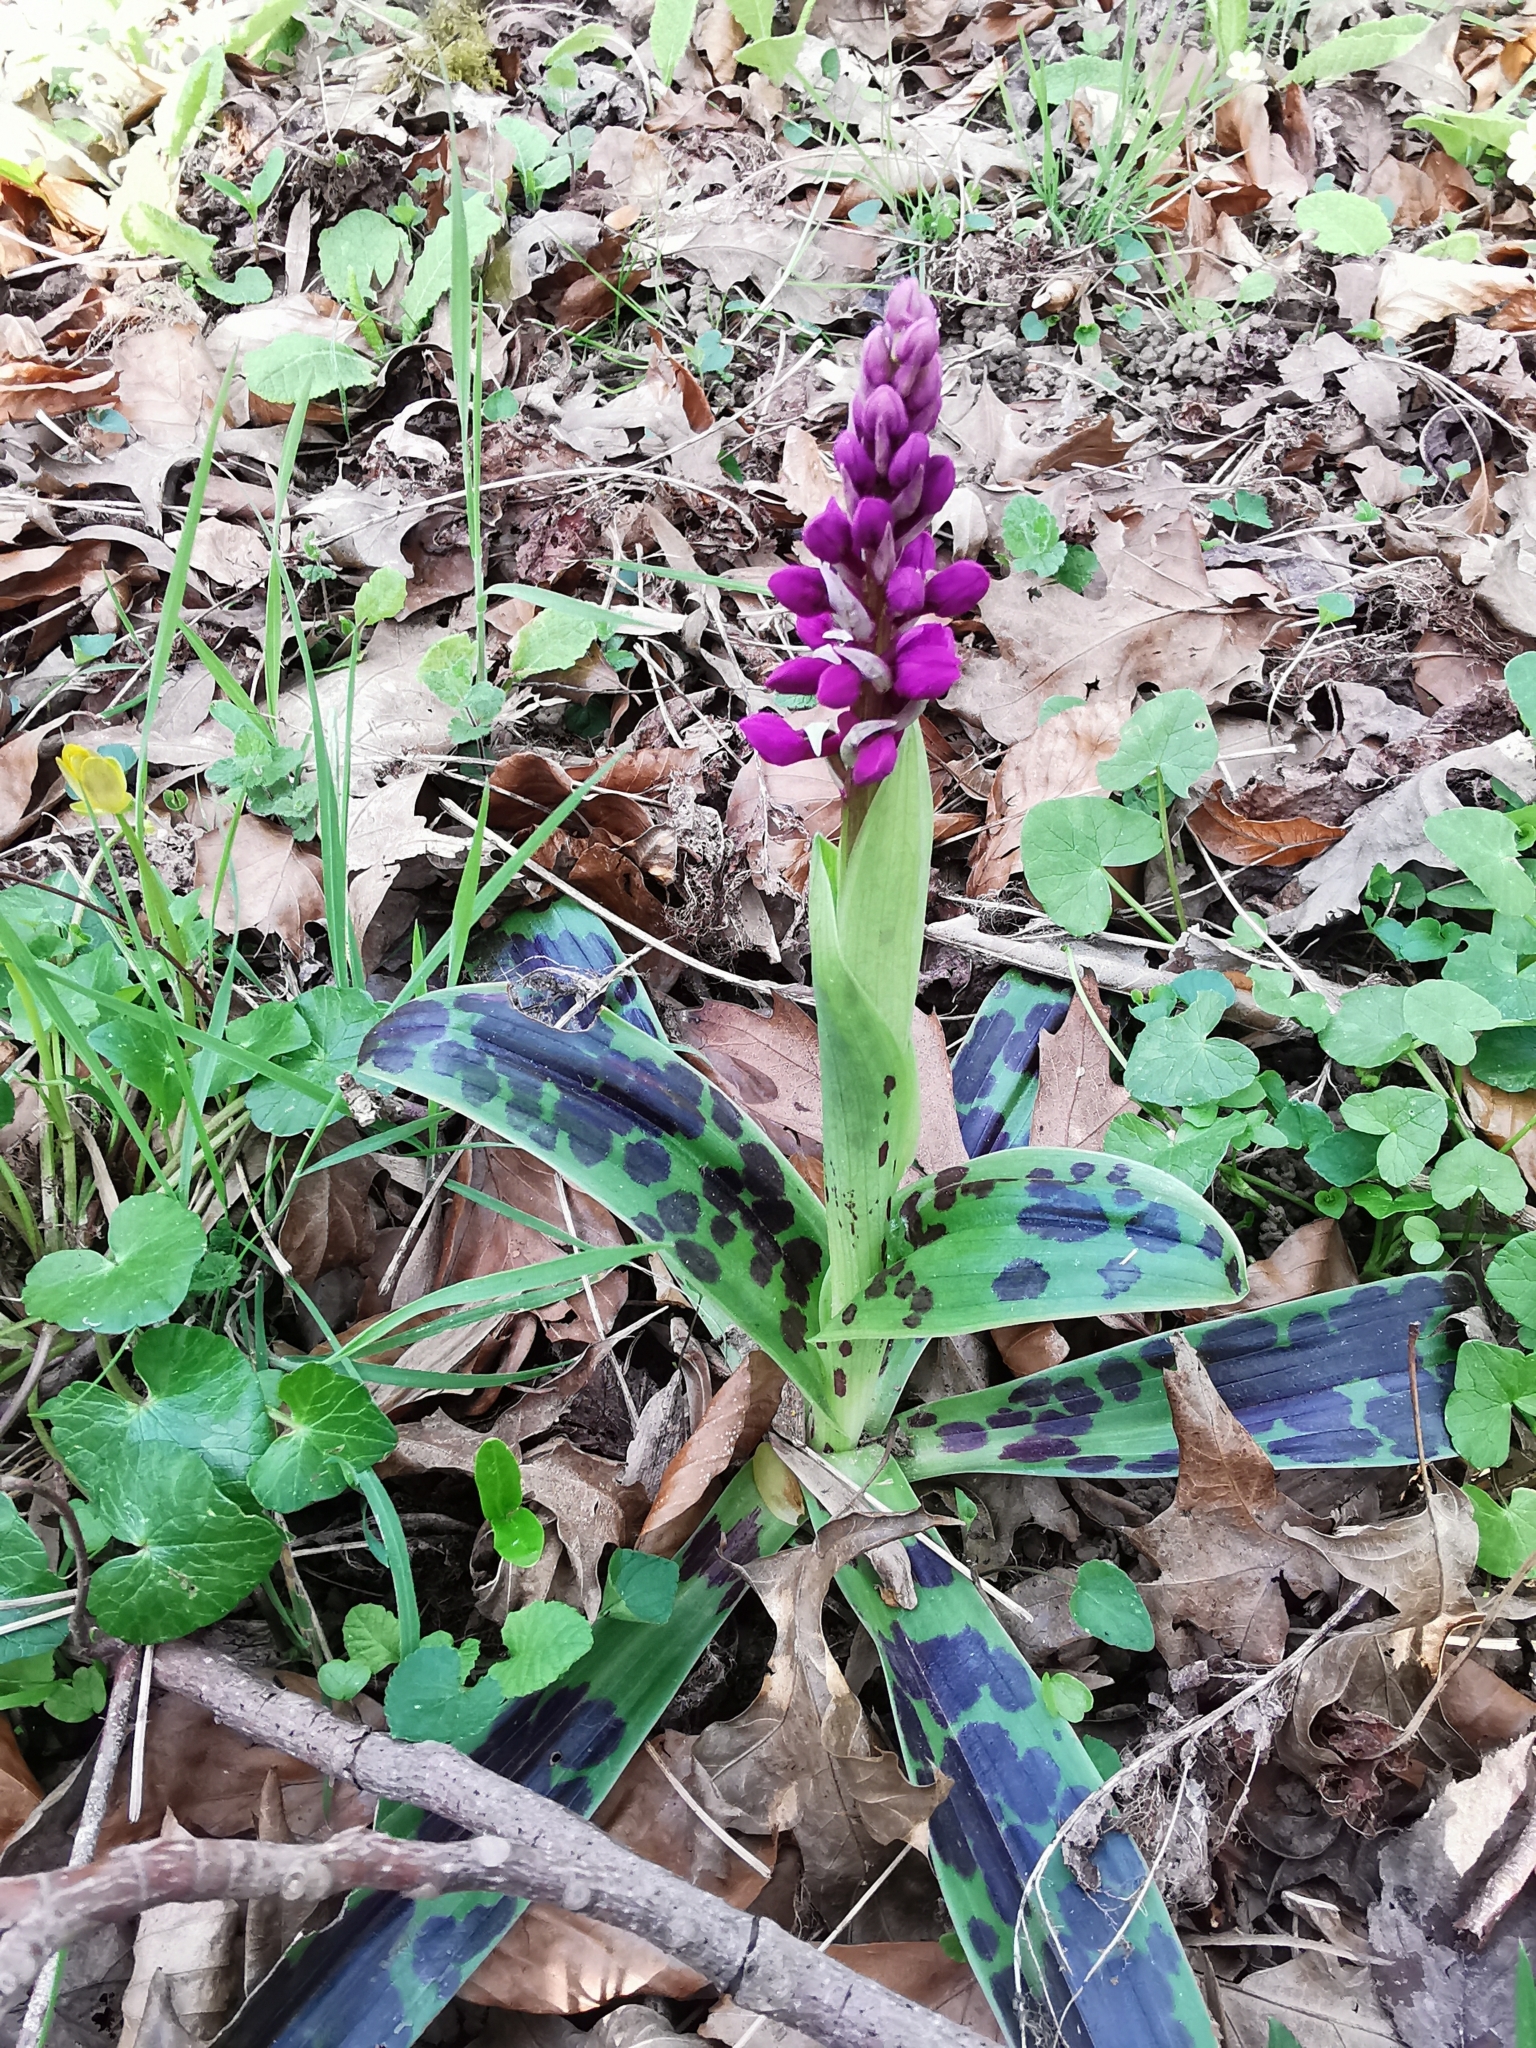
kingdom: Plantae
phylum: Tracheophyta
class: Liliopsida
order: Asparagales
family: Orchidaceae
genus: Orchis
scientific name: Orchis mascula
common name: Early-purple orchid
